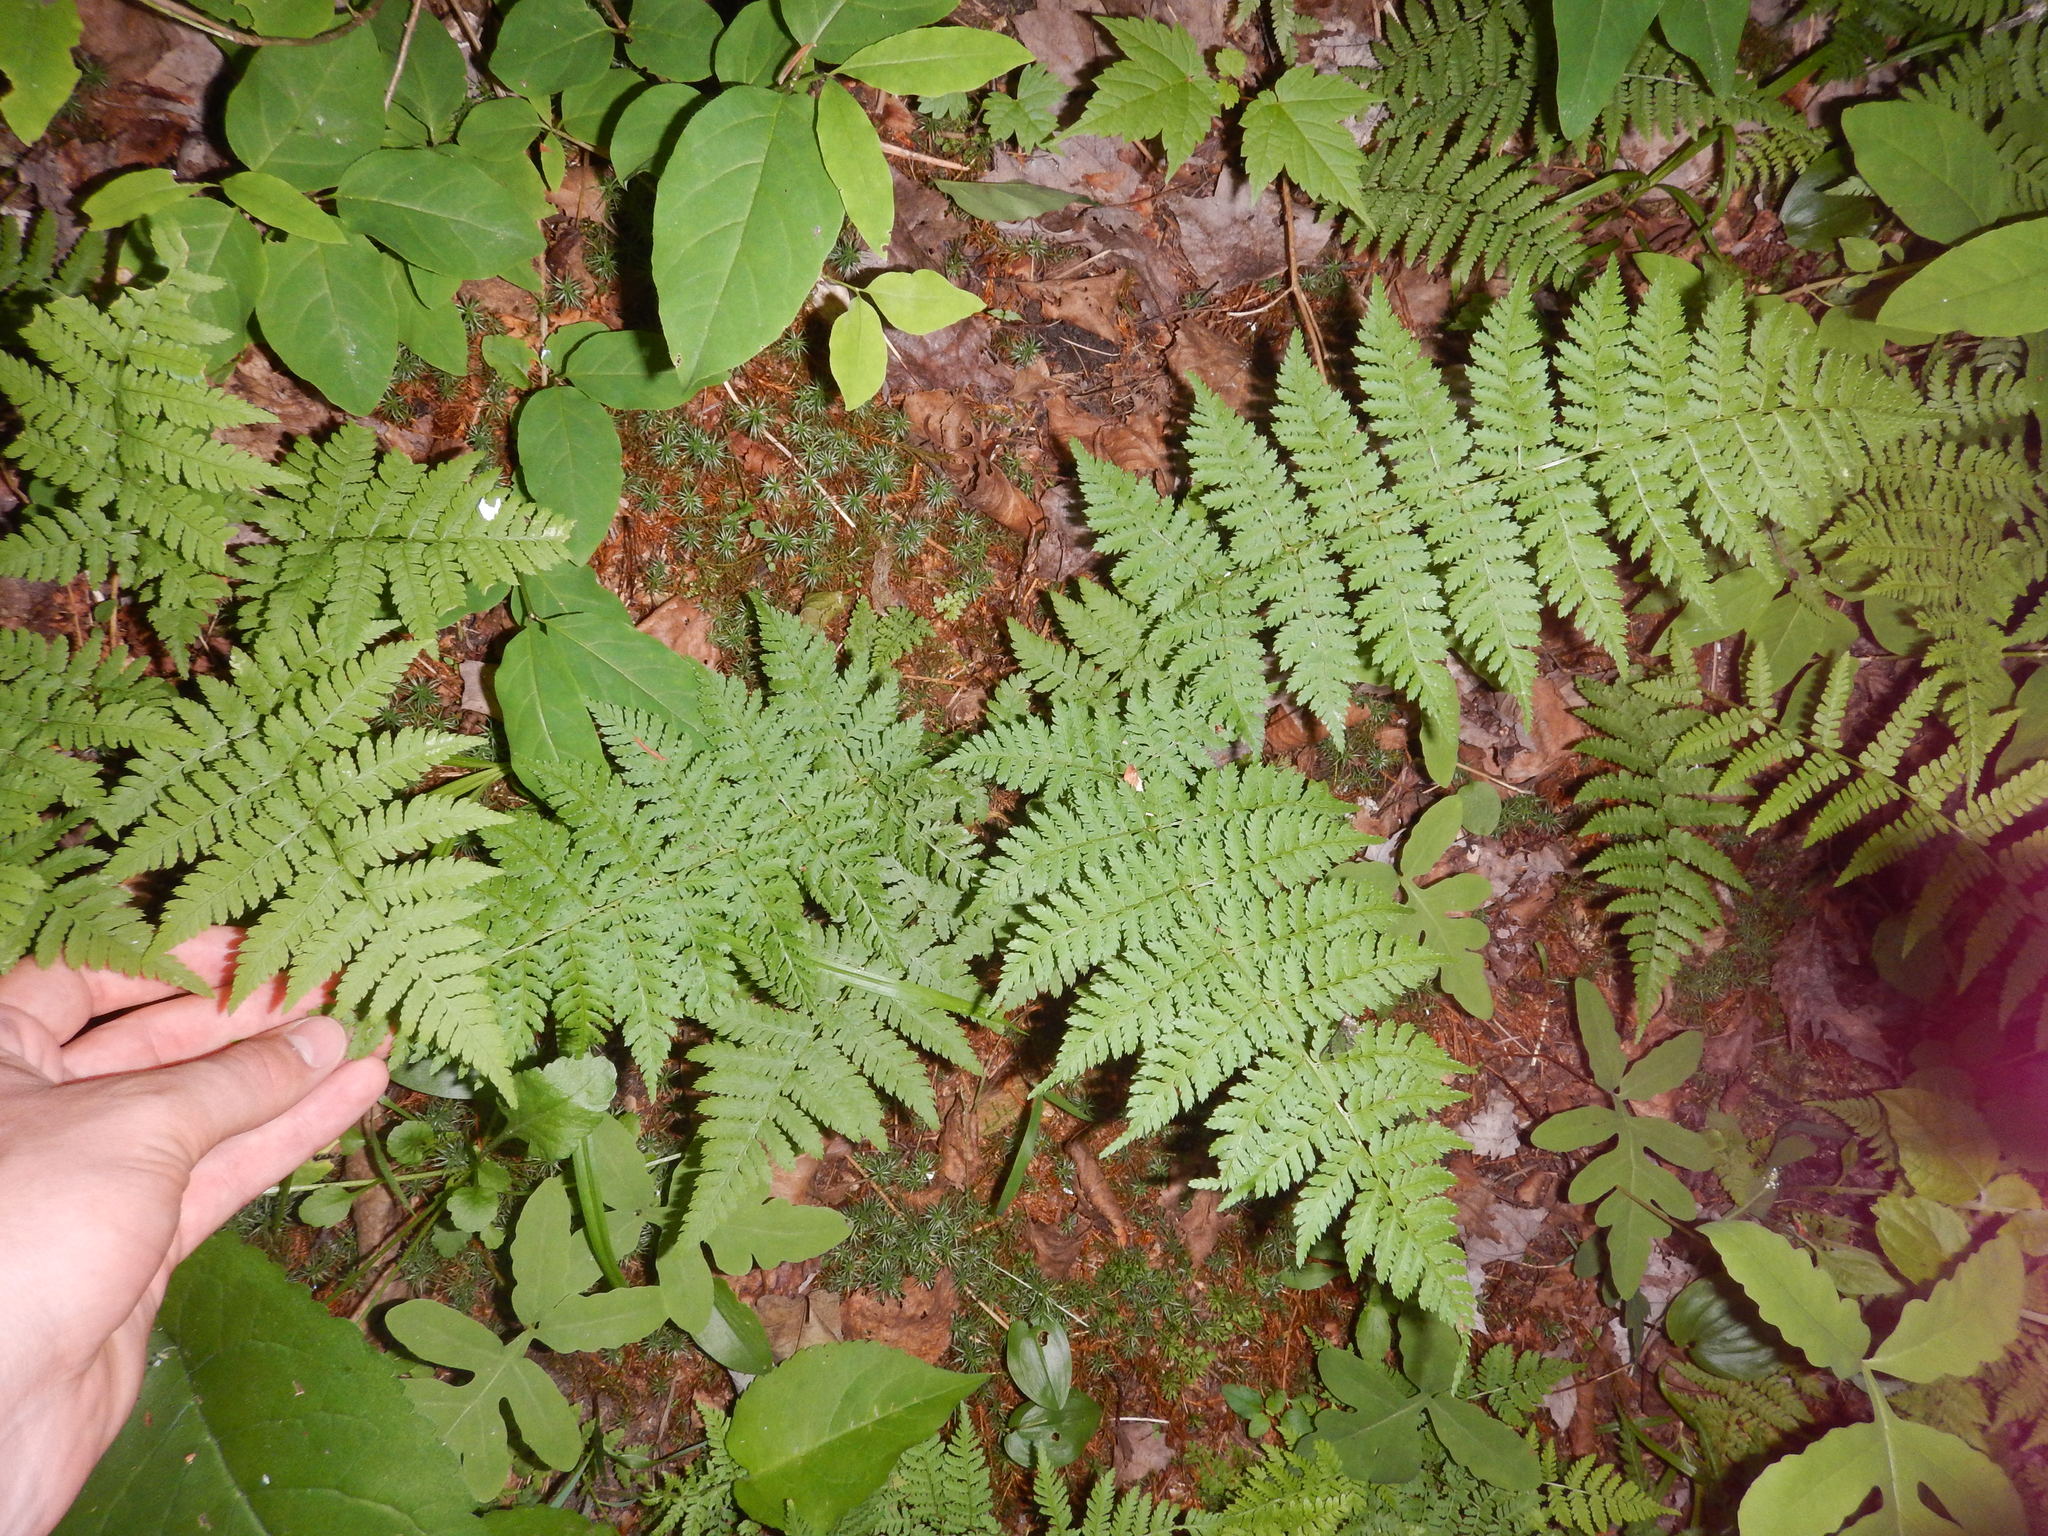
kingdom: Plantae
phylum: Tracheophyta
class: Polypodiopsida
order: Polypodiales
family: Dryopteridaceae
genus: Dryopteris
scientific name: Dryopteris intermedia
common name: Evergreen wood fern
